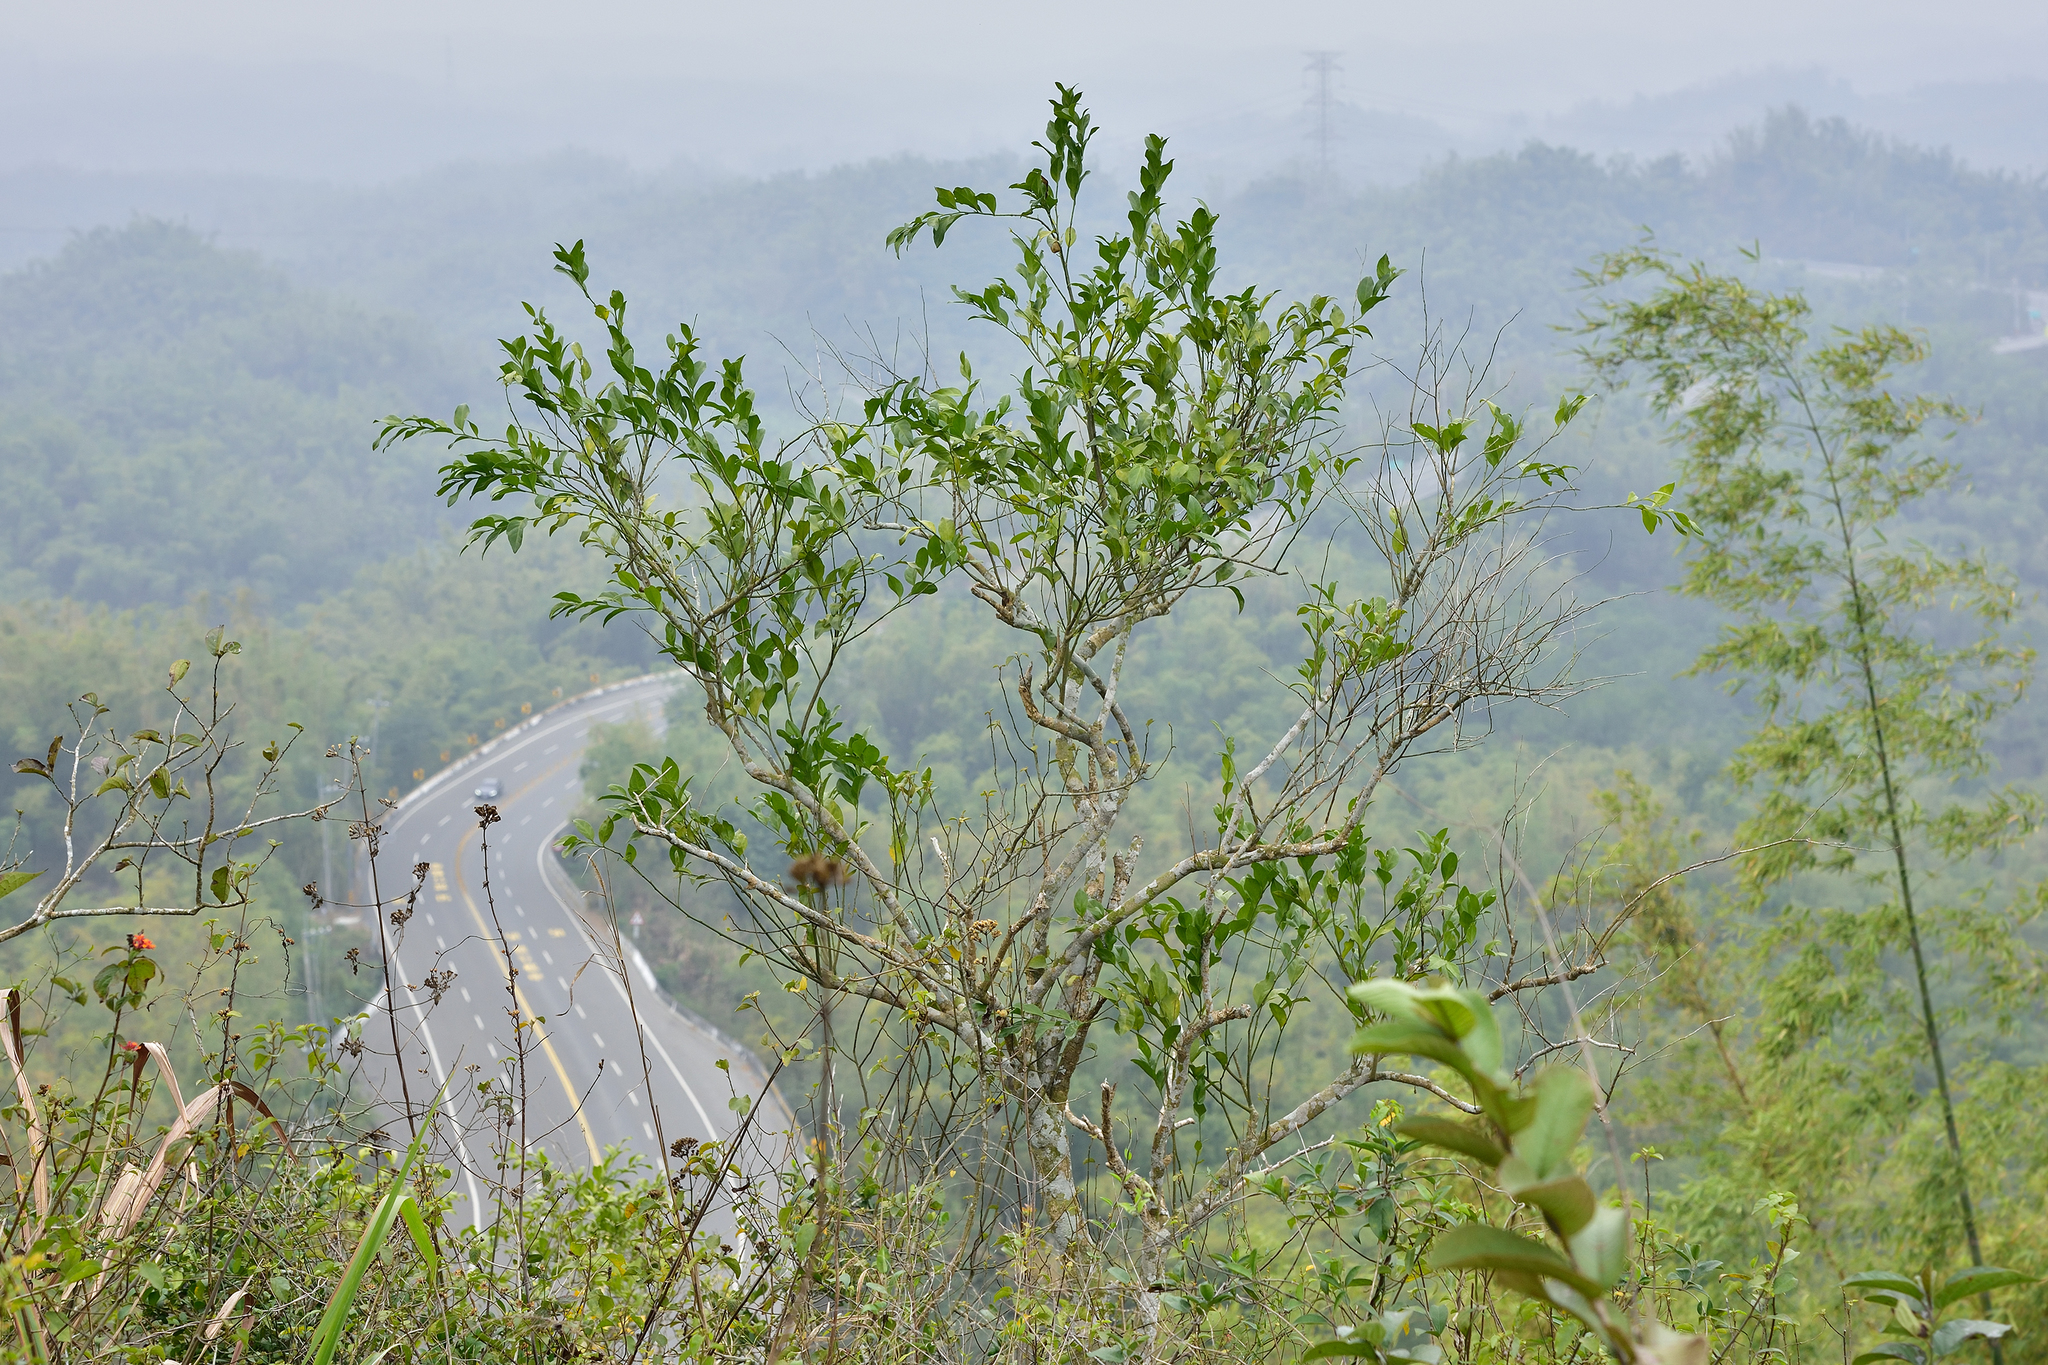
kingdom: Plantae
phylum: Tracheophyta
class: Magnoliopsida
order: Santalales
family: Opiliaceae
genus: Champereia
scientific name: Champereia manillana
